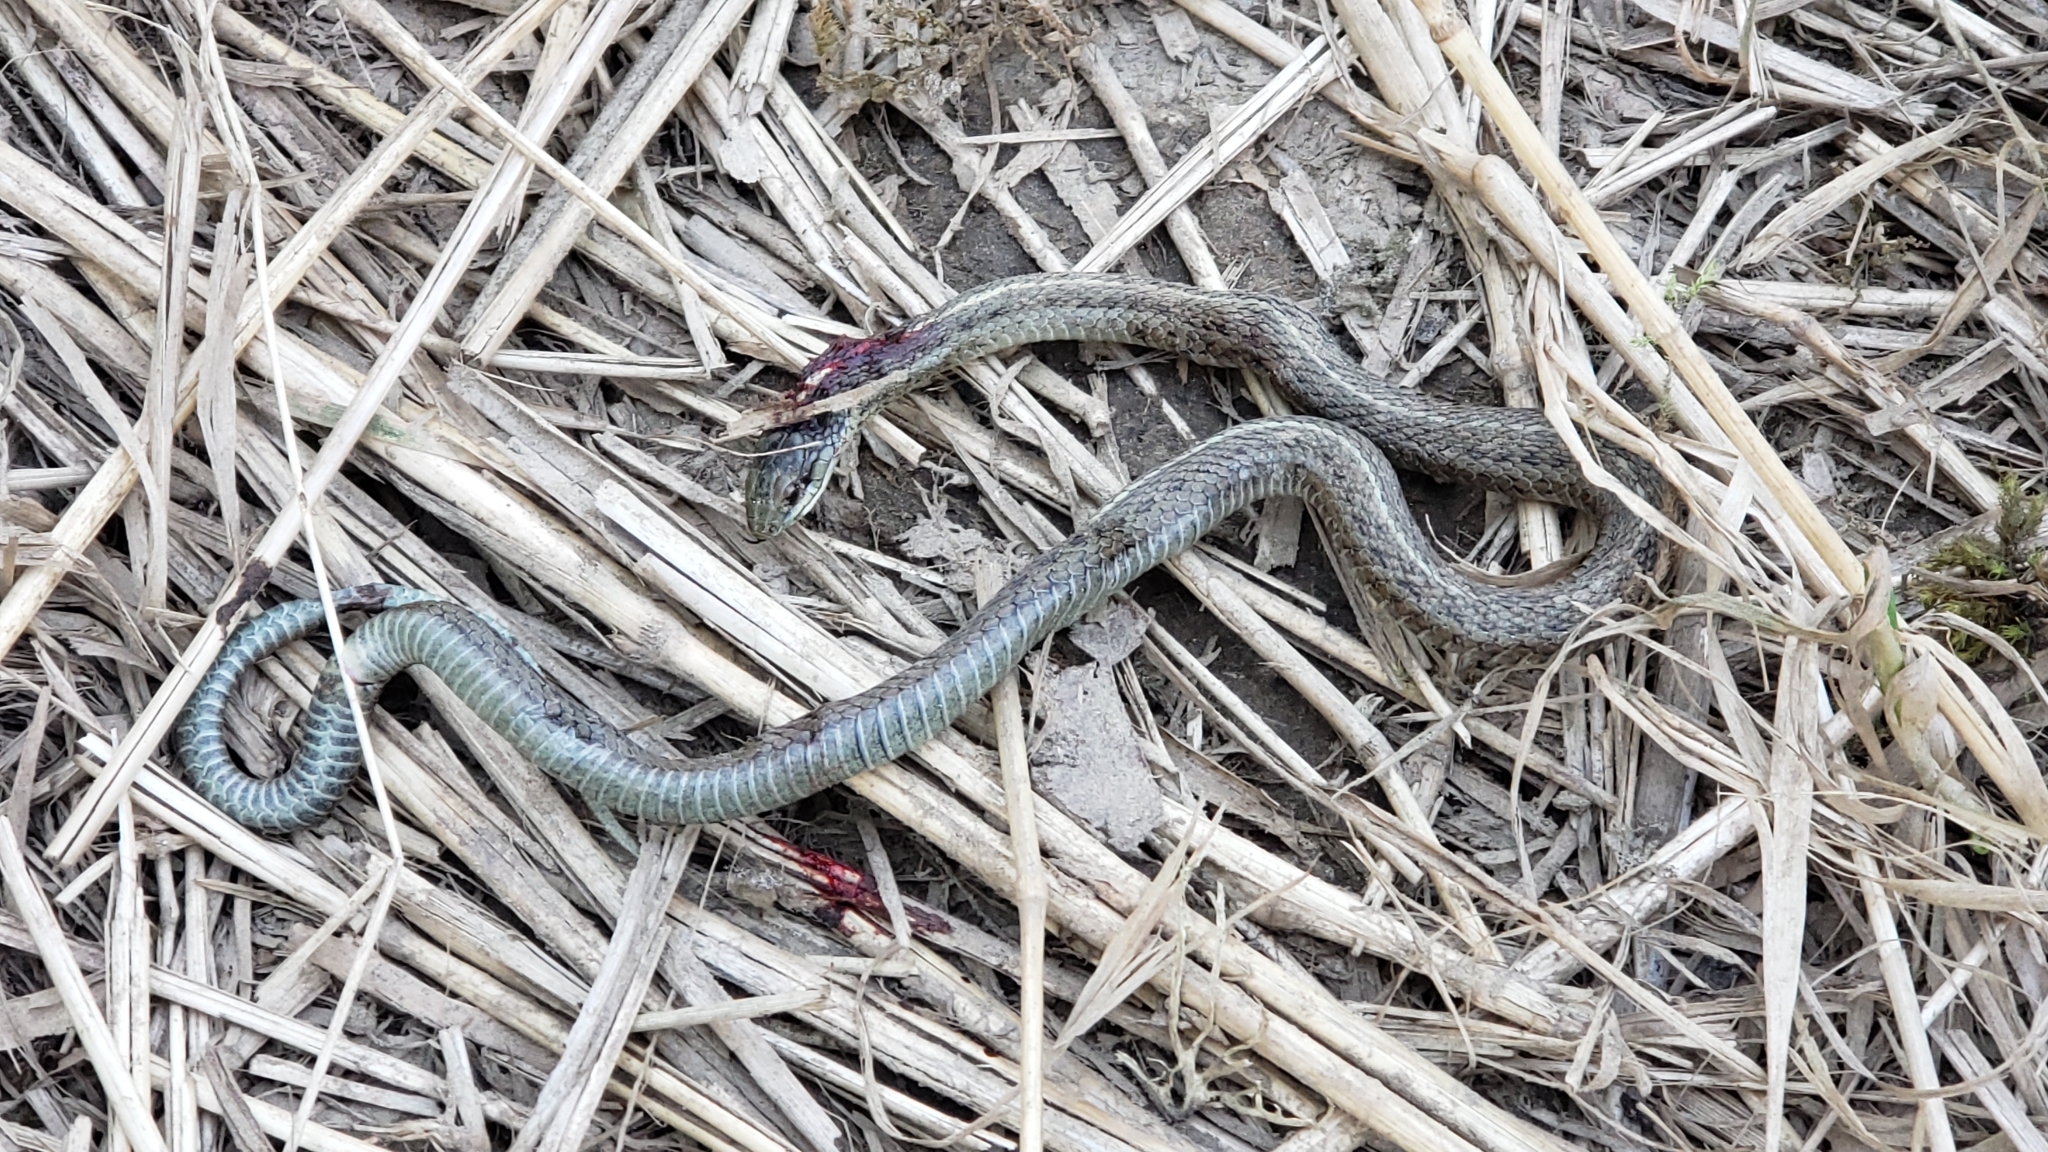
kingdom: Animalia
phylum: Chordata
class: Squamata
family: Colubridae
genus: Thamnophis
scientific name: Thamnophis ordinoides
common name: Northwestern garter snake
